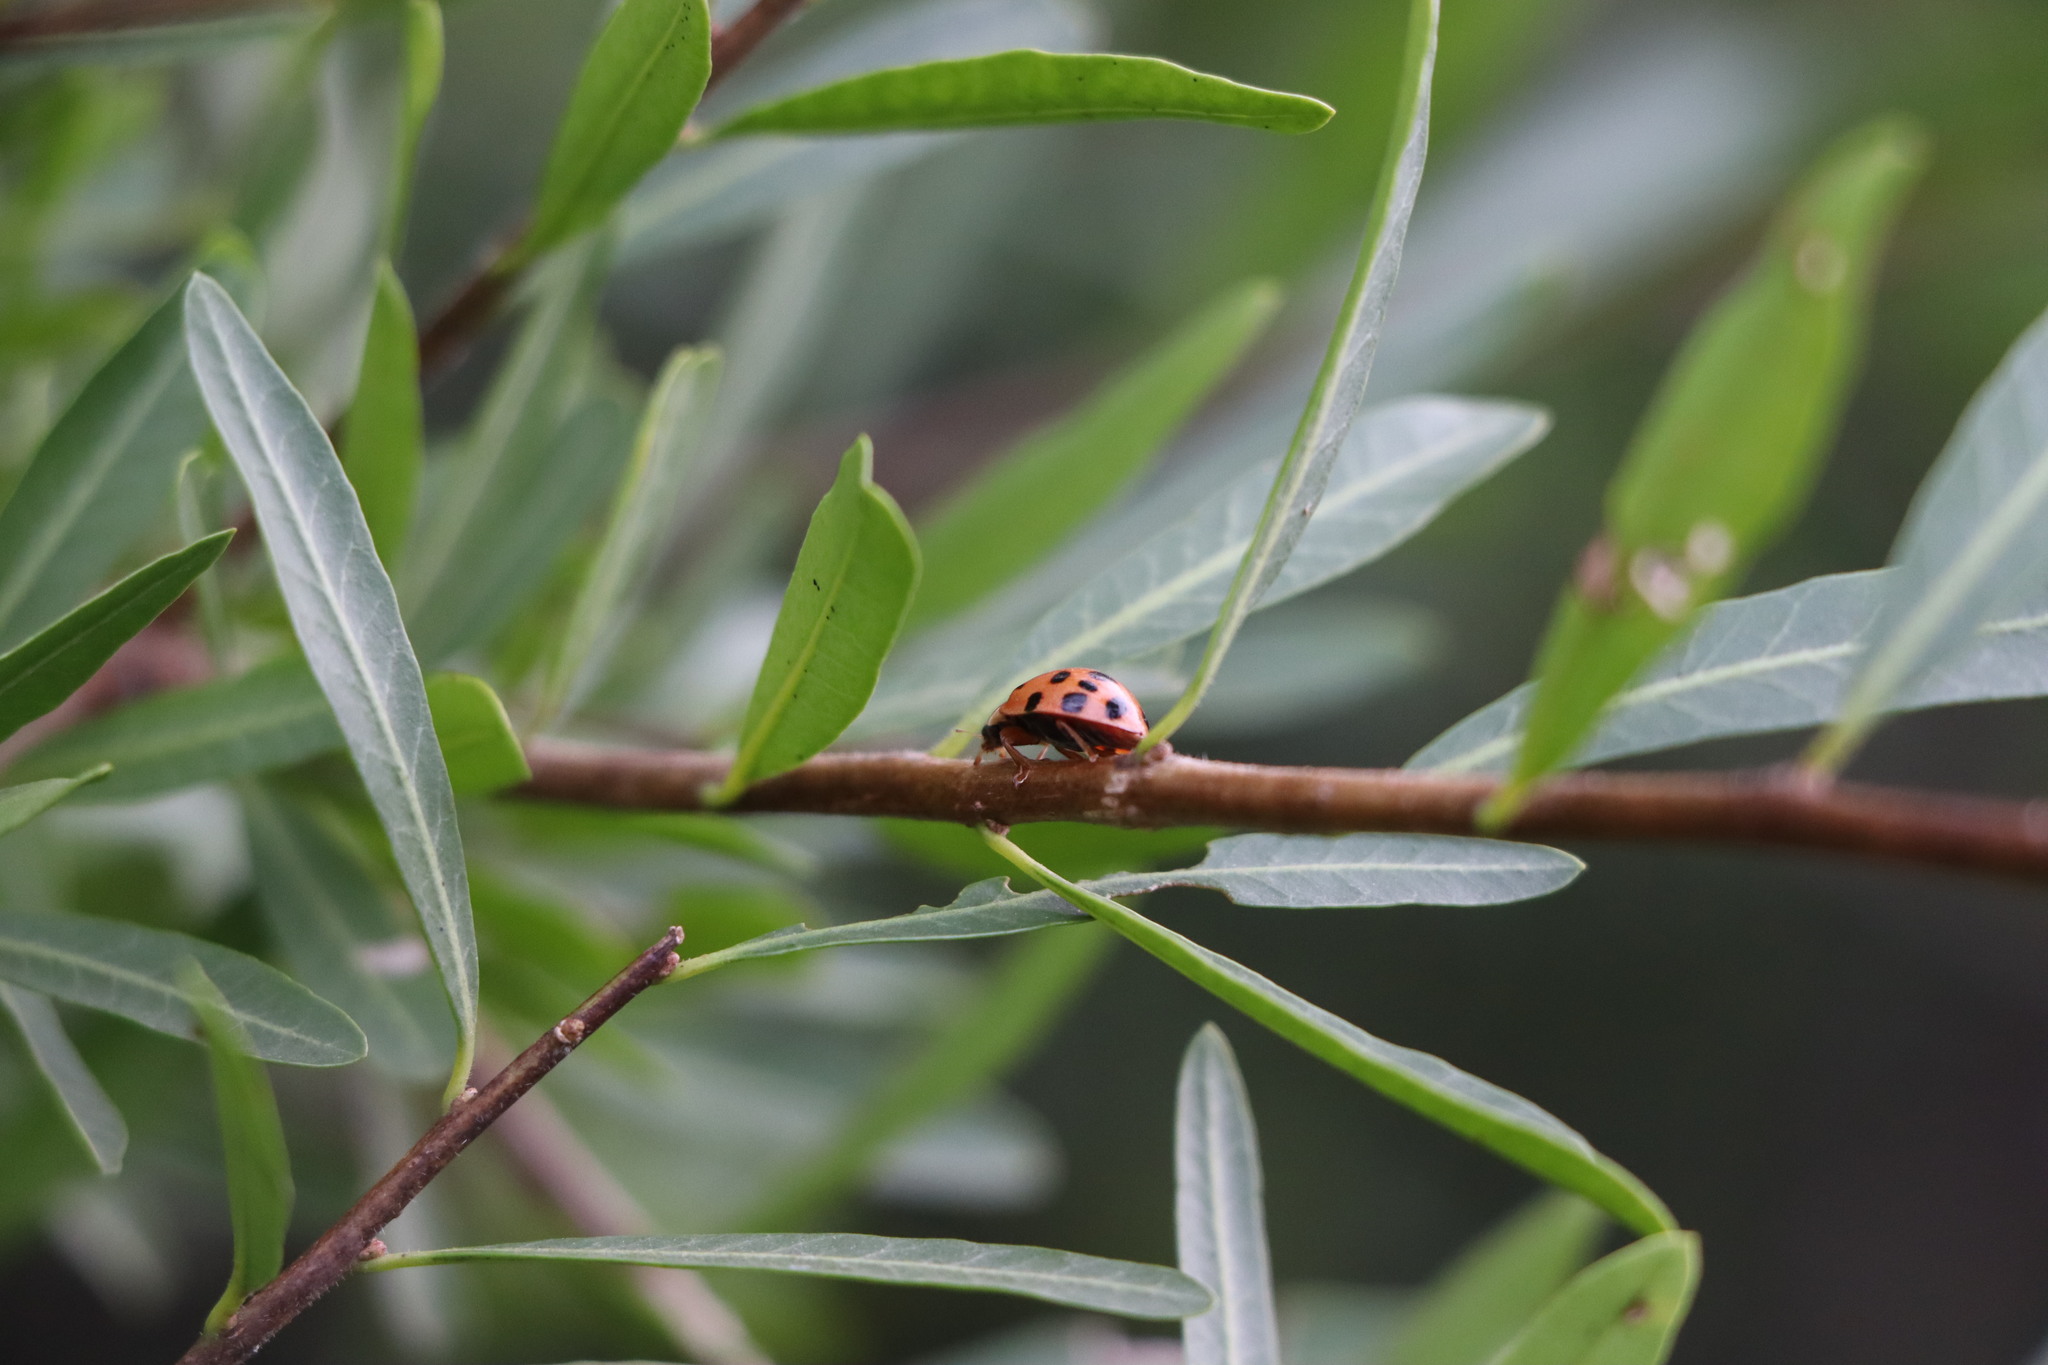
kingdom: Animalia
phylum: Arthropoda
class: Insecta
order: Coleoptera
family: Coccinellidae
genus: Harmonia
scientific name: Harmonia axyridis
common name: Harlequin ladybird
